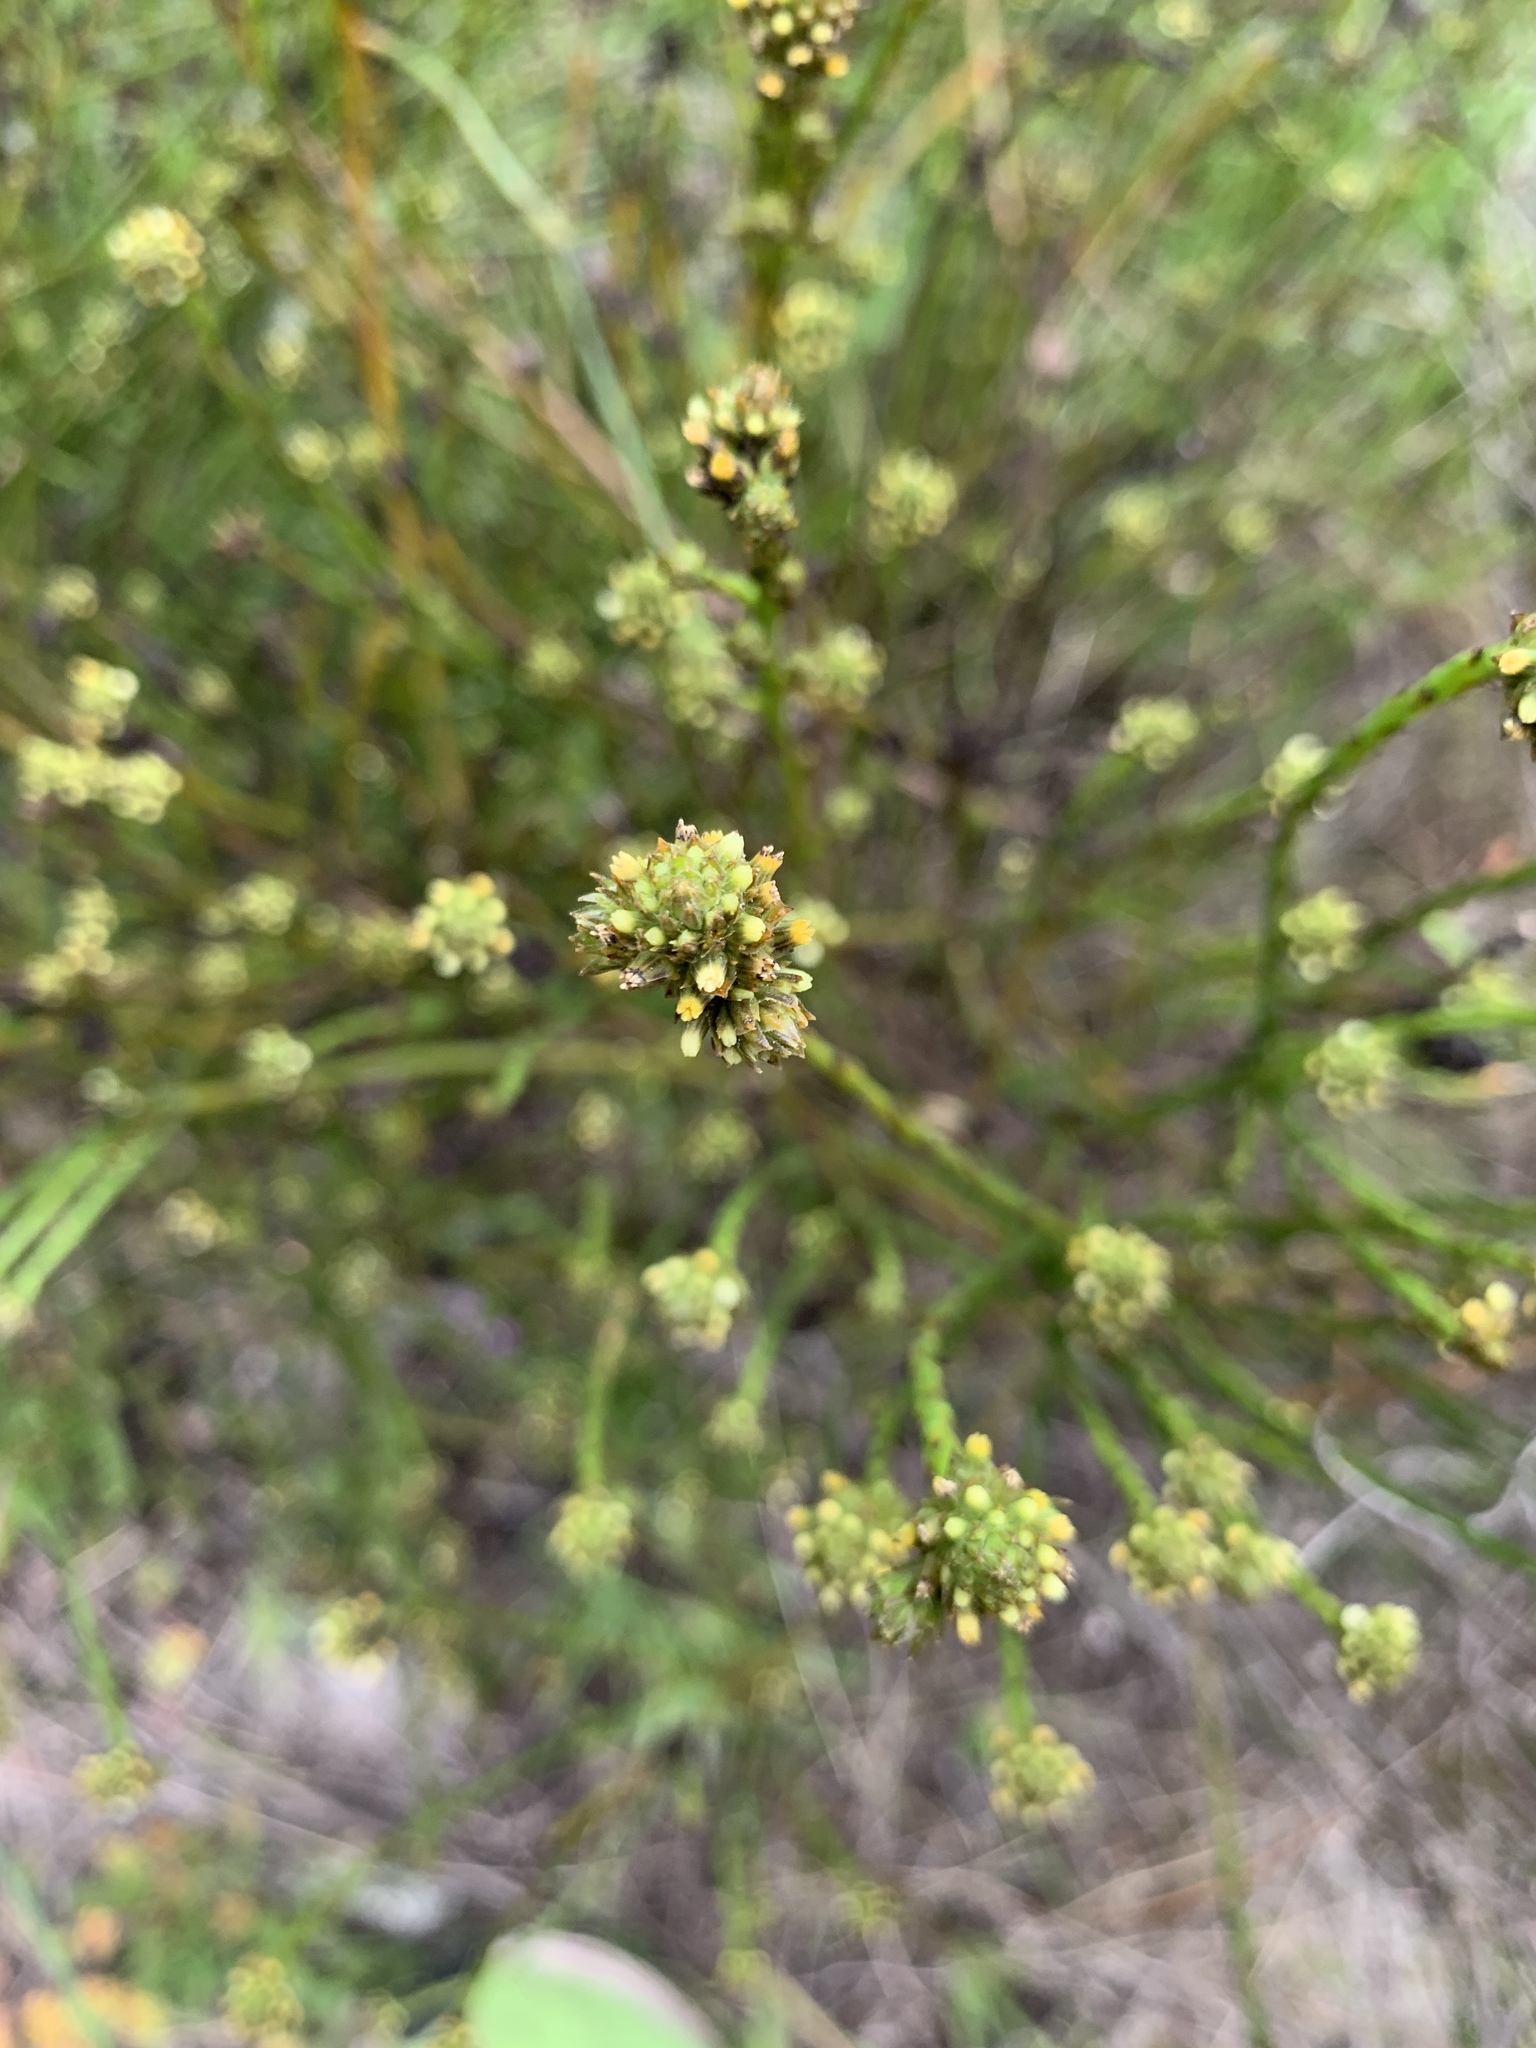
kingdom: Plantae
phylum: Tracheophyta
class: Magnoliopsida
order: Santalales
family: Thesiaceae
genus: Thesium
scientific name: Thesium aggregatum
